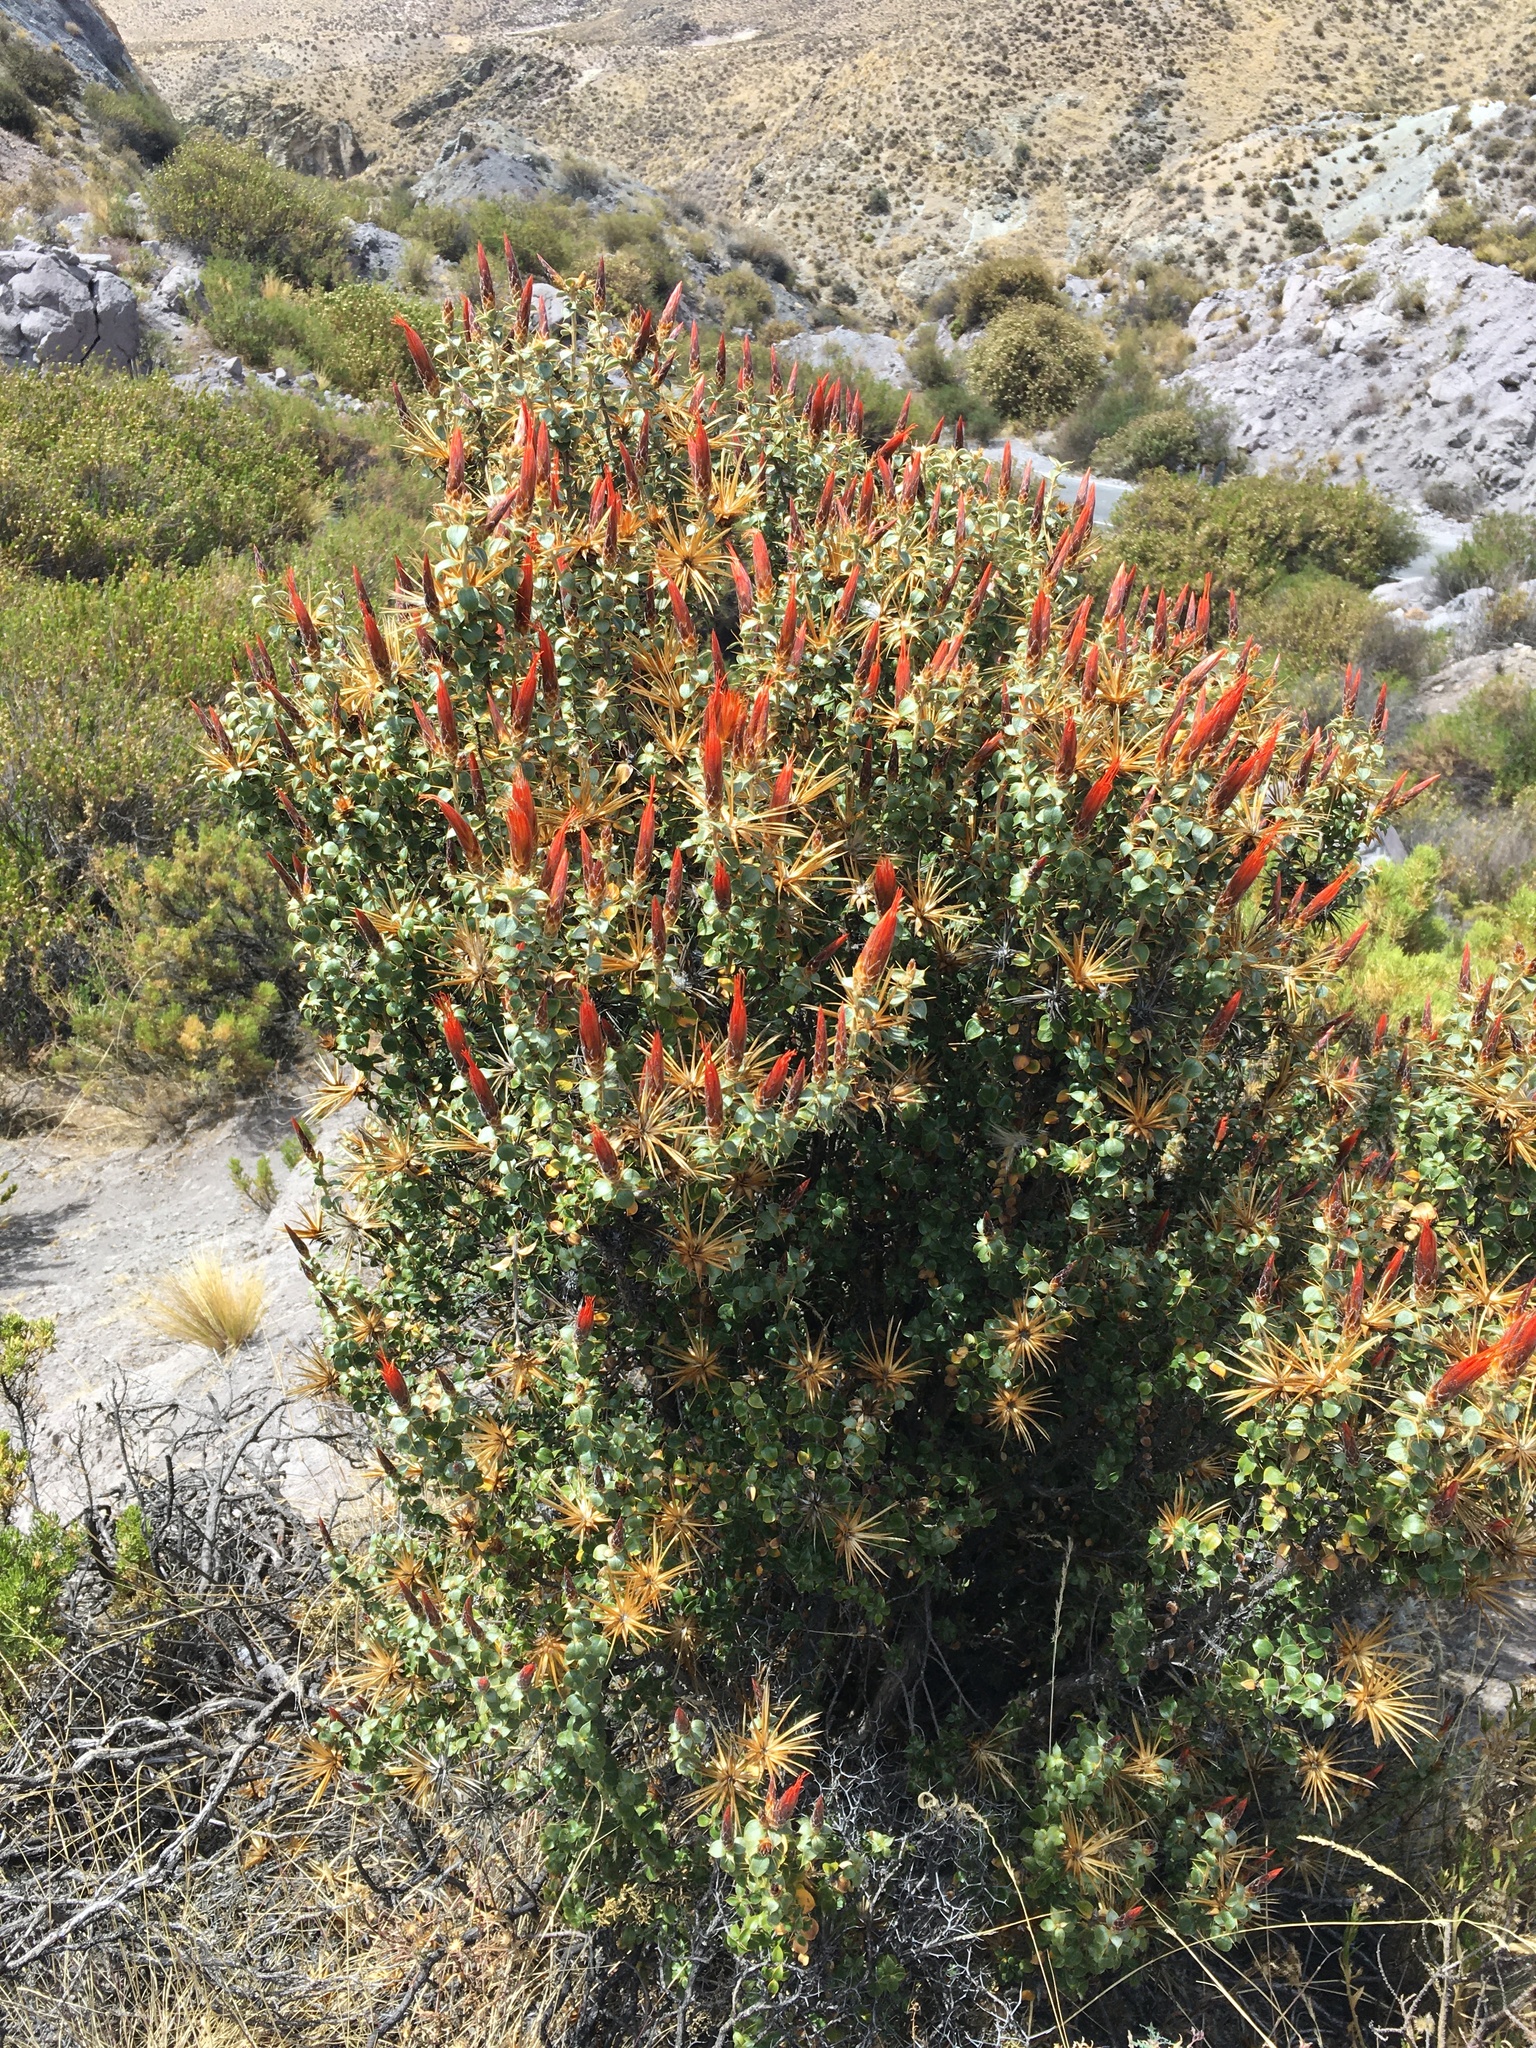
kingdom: Plantae
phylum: Tracheophyta
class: Magnoliopsida
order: Asterales
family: Asteraceae
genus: Chuquiraga
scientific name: Chuquiraga spinosa
